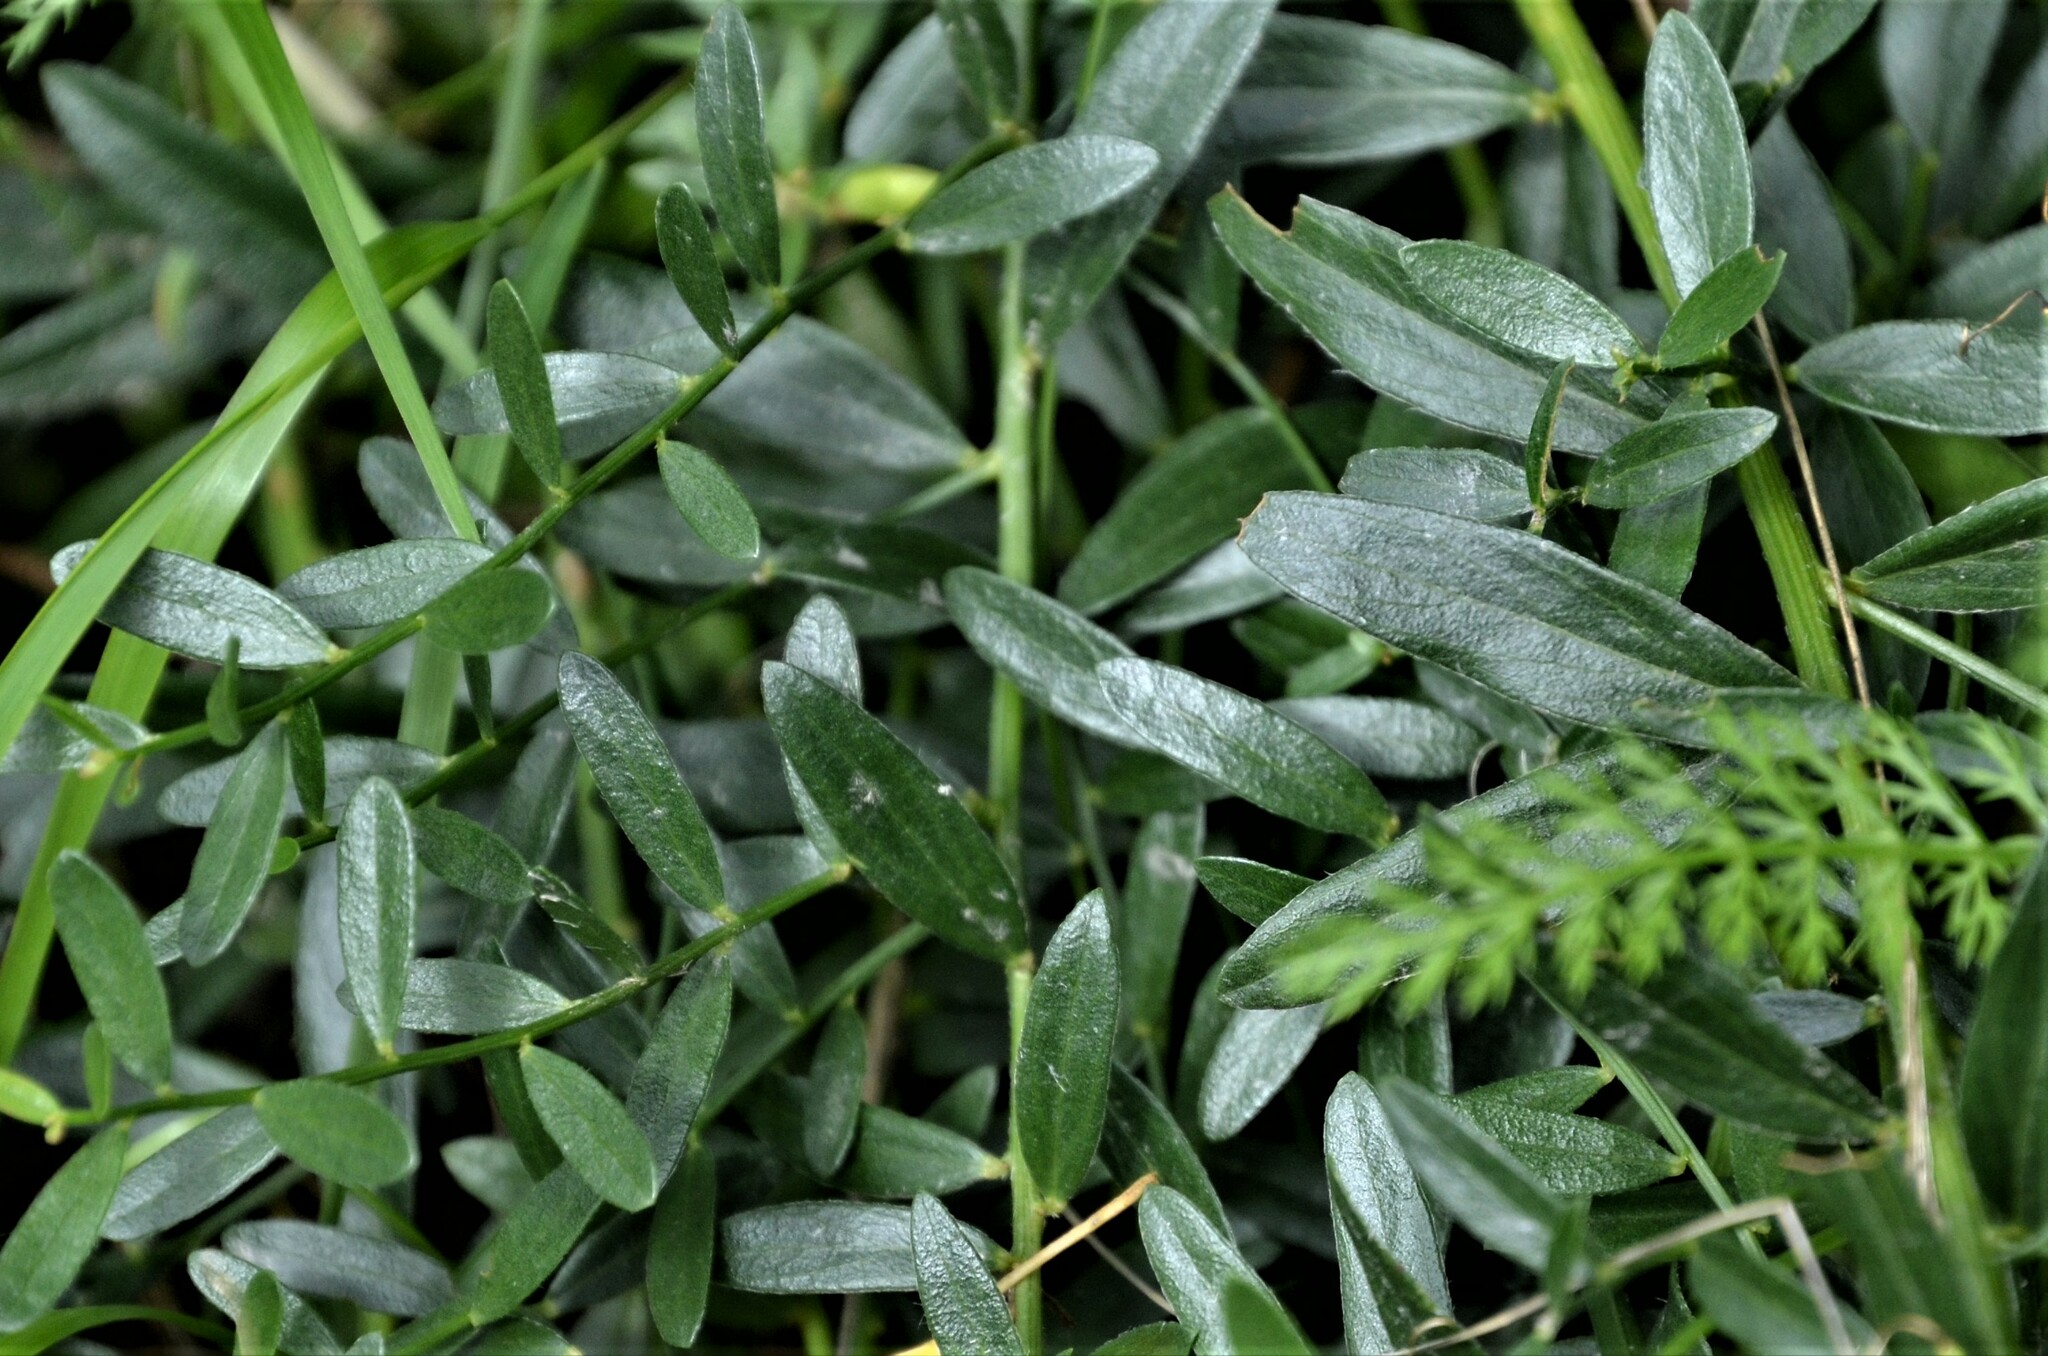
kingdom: Plantae
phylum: Tracheophyta
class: Magnoliopsida
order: Fabales
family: Fabaceae
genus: Genista
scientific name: Genista tinctoria
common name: Dyer's greenweed
